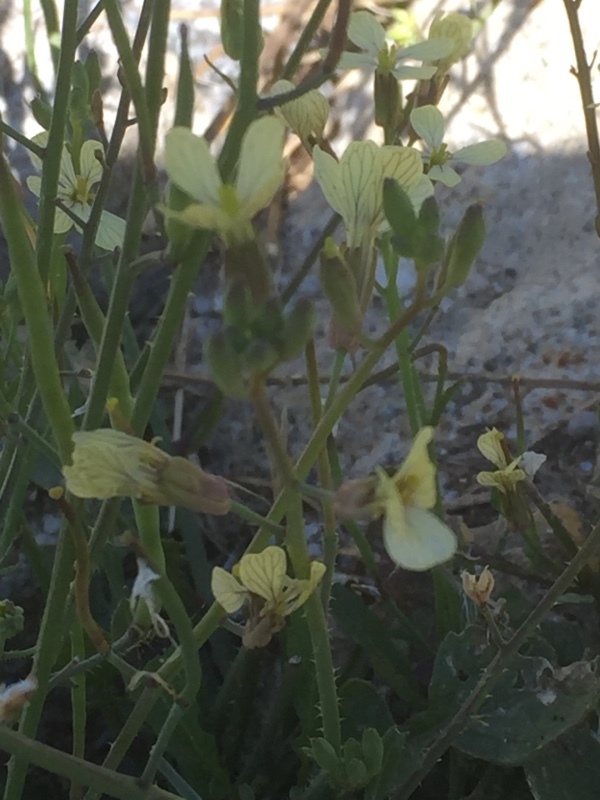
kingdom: Plantae
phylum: Tracheophyta
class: Magnoliopsida
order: Brassicales
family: Brassicaceae
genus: Raphanus
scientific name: Raphanus raphanistrum
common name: Wild radish
